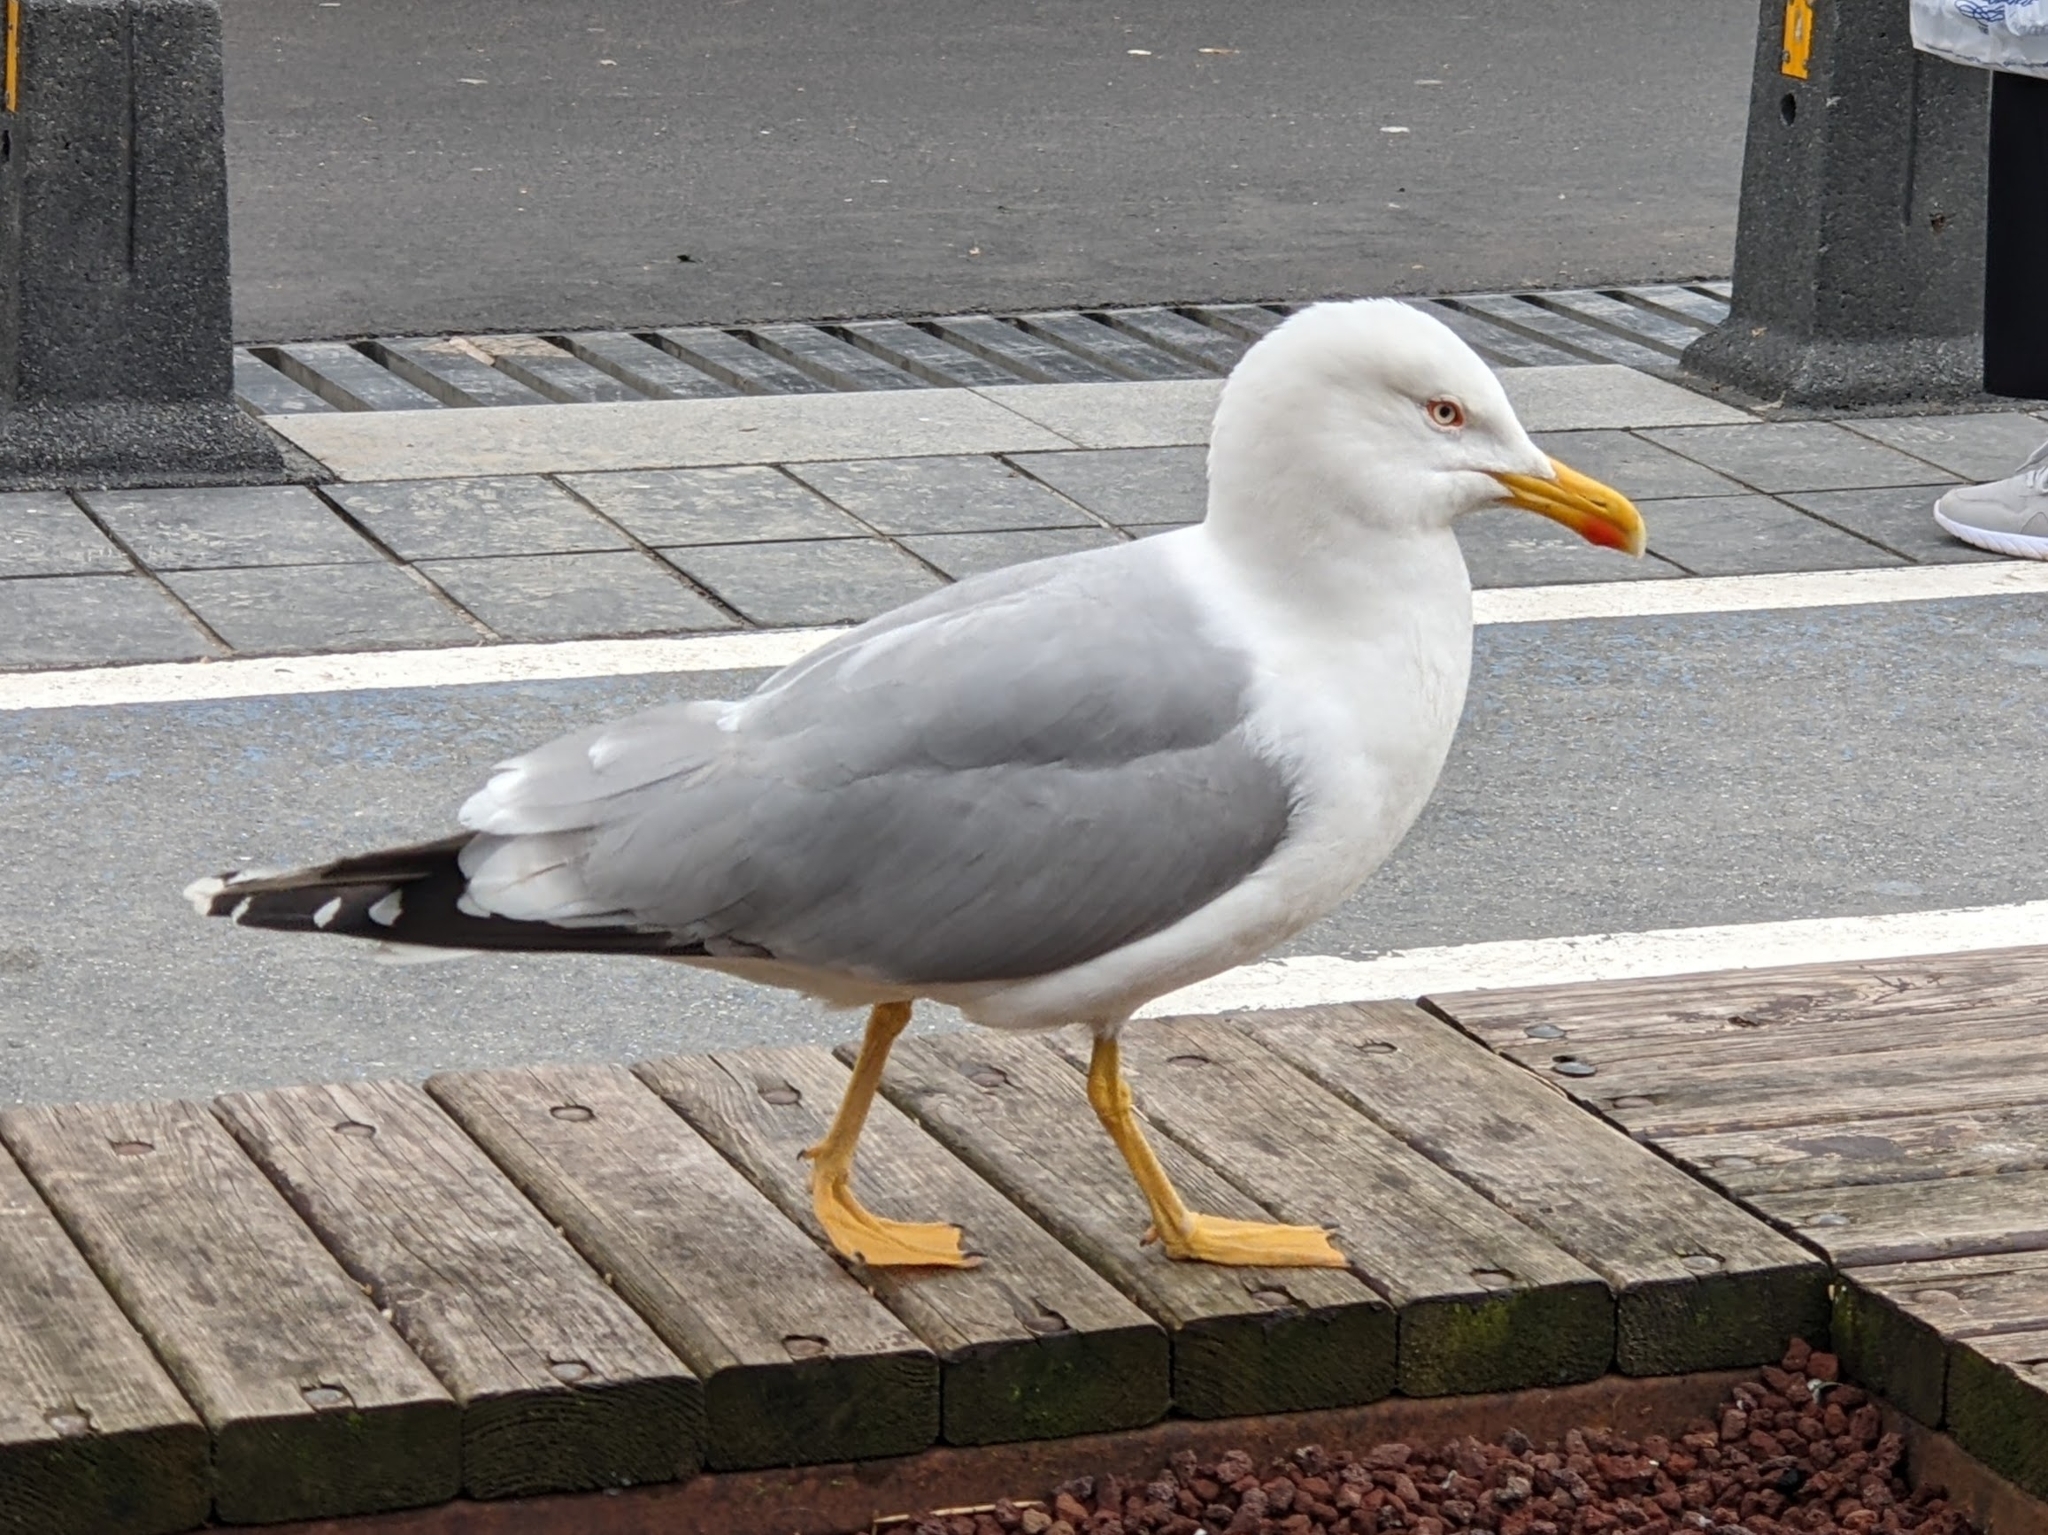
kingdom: Animalia
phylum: Chordata
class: Aves
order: Charadriiformes
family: Laridae
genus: Larus
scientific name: Larus michahellis
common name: Yellow-legged gull
